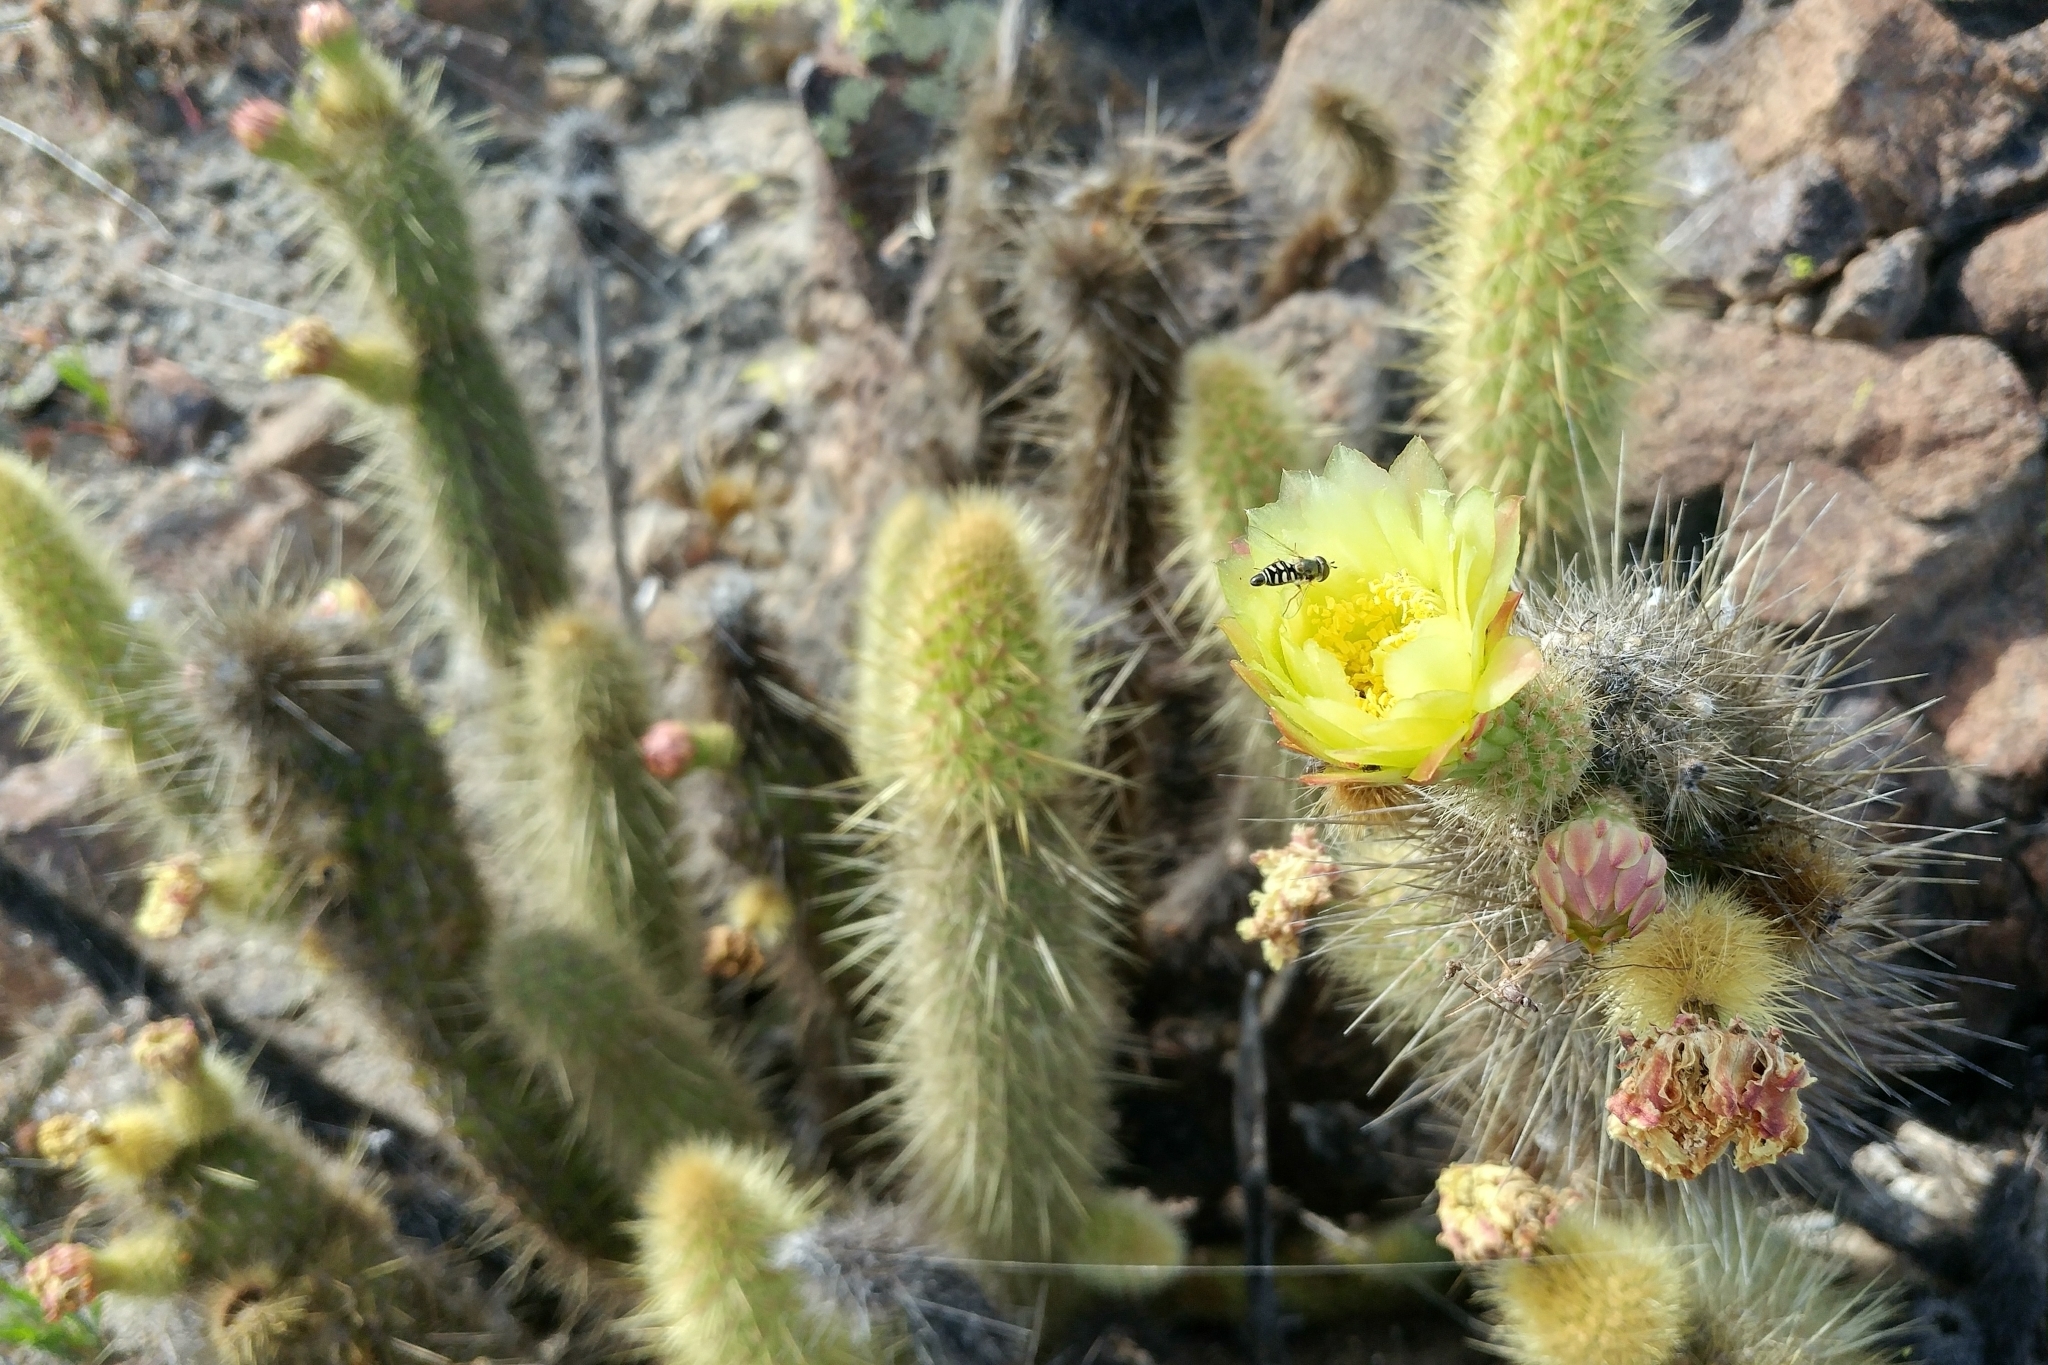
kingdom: Plantae
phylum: Tracheophyta
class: Magnoliopsida
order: Caryophyllales
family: Cactaceae
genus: Bergerocactus
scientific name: Bergerocactus emoryi
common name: Golden snakecactus
